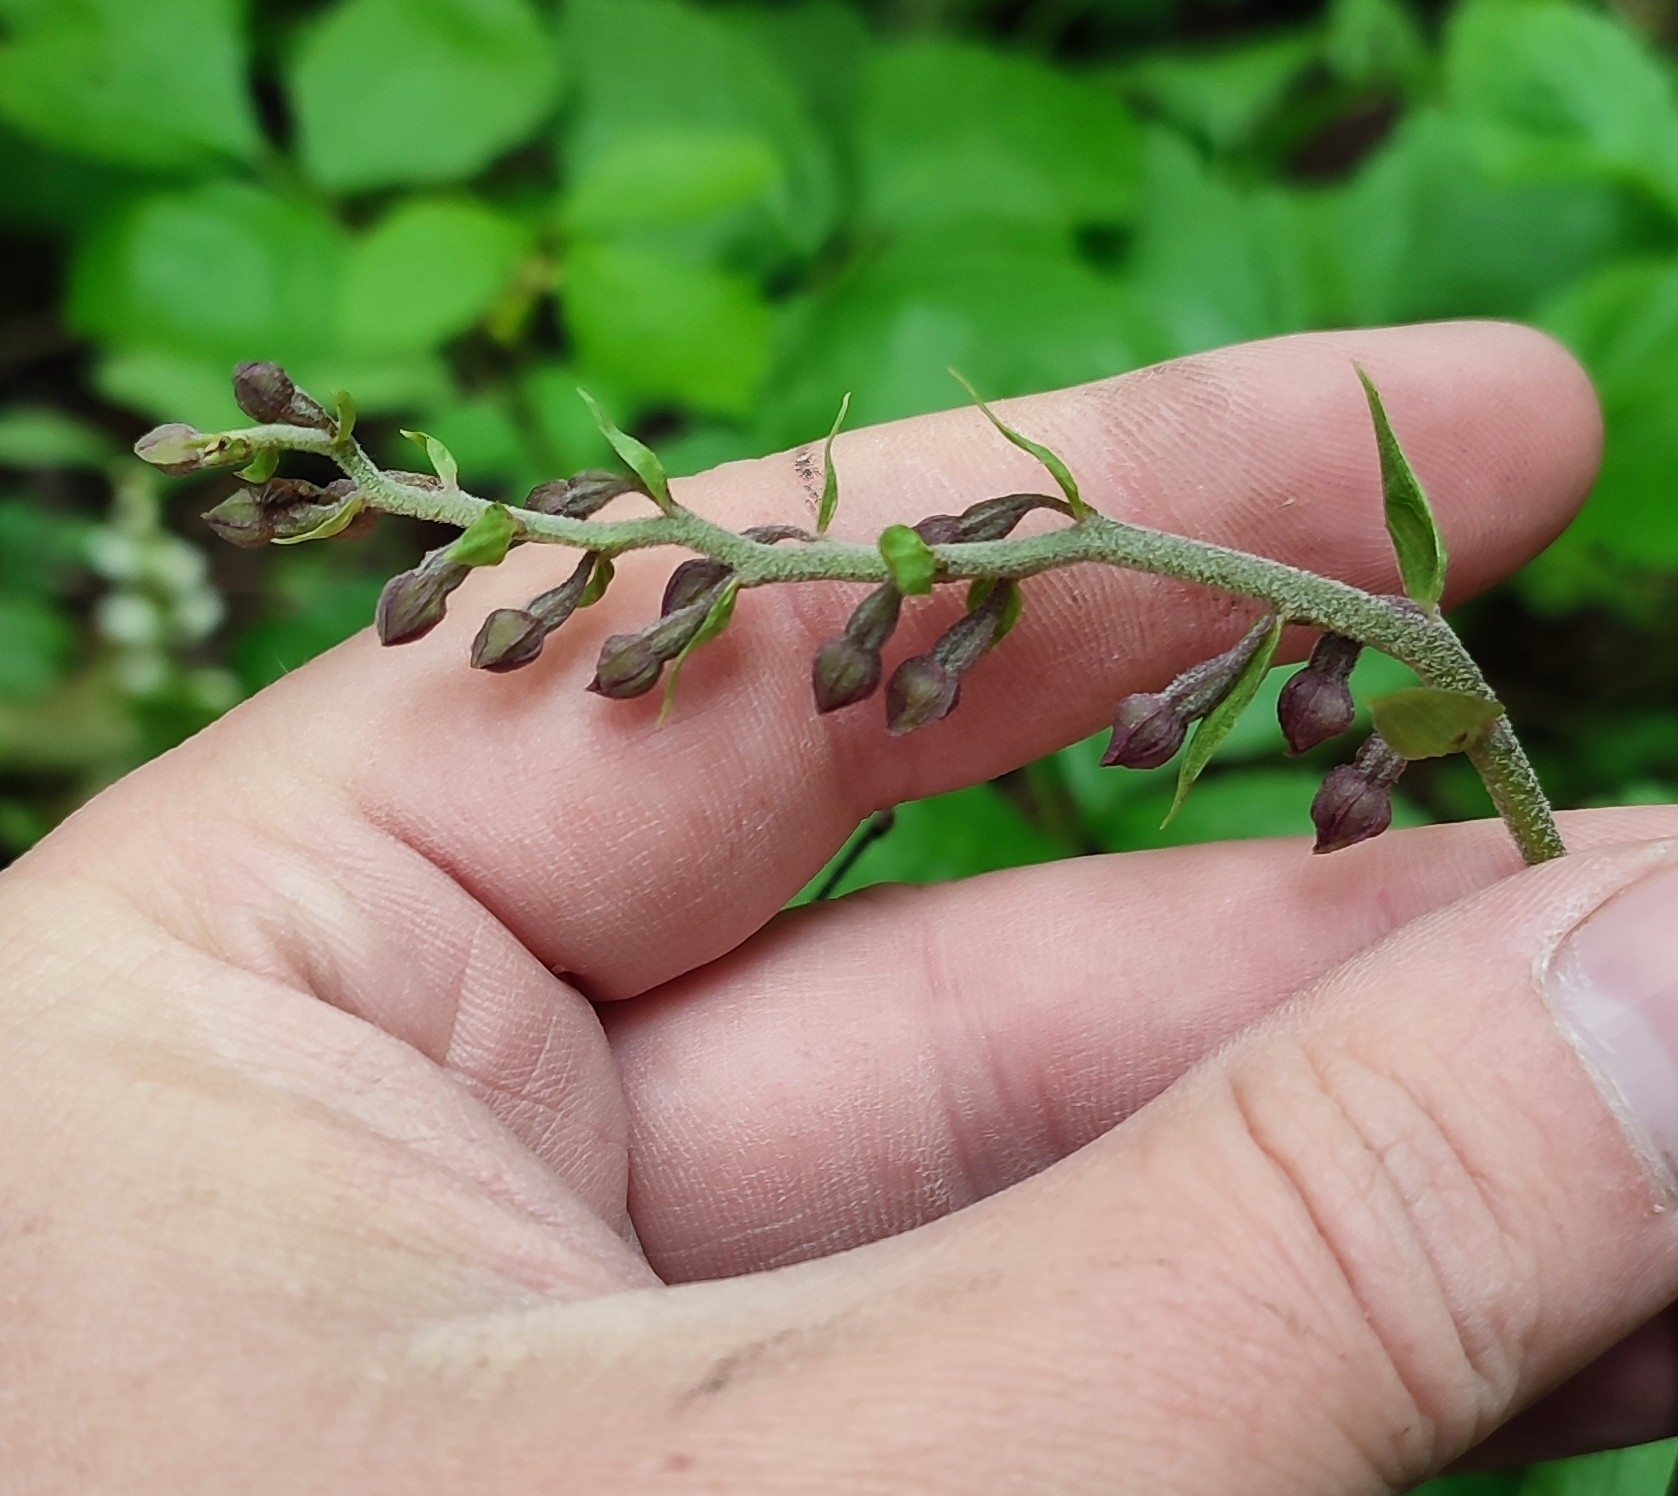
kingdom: Plantae
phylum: Tracheophyta
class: Liliopsida
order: Asparagales
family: Orchidaceae
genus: Epipactis
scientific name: Epipactis atrorubens
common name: Dark-red helleborine
